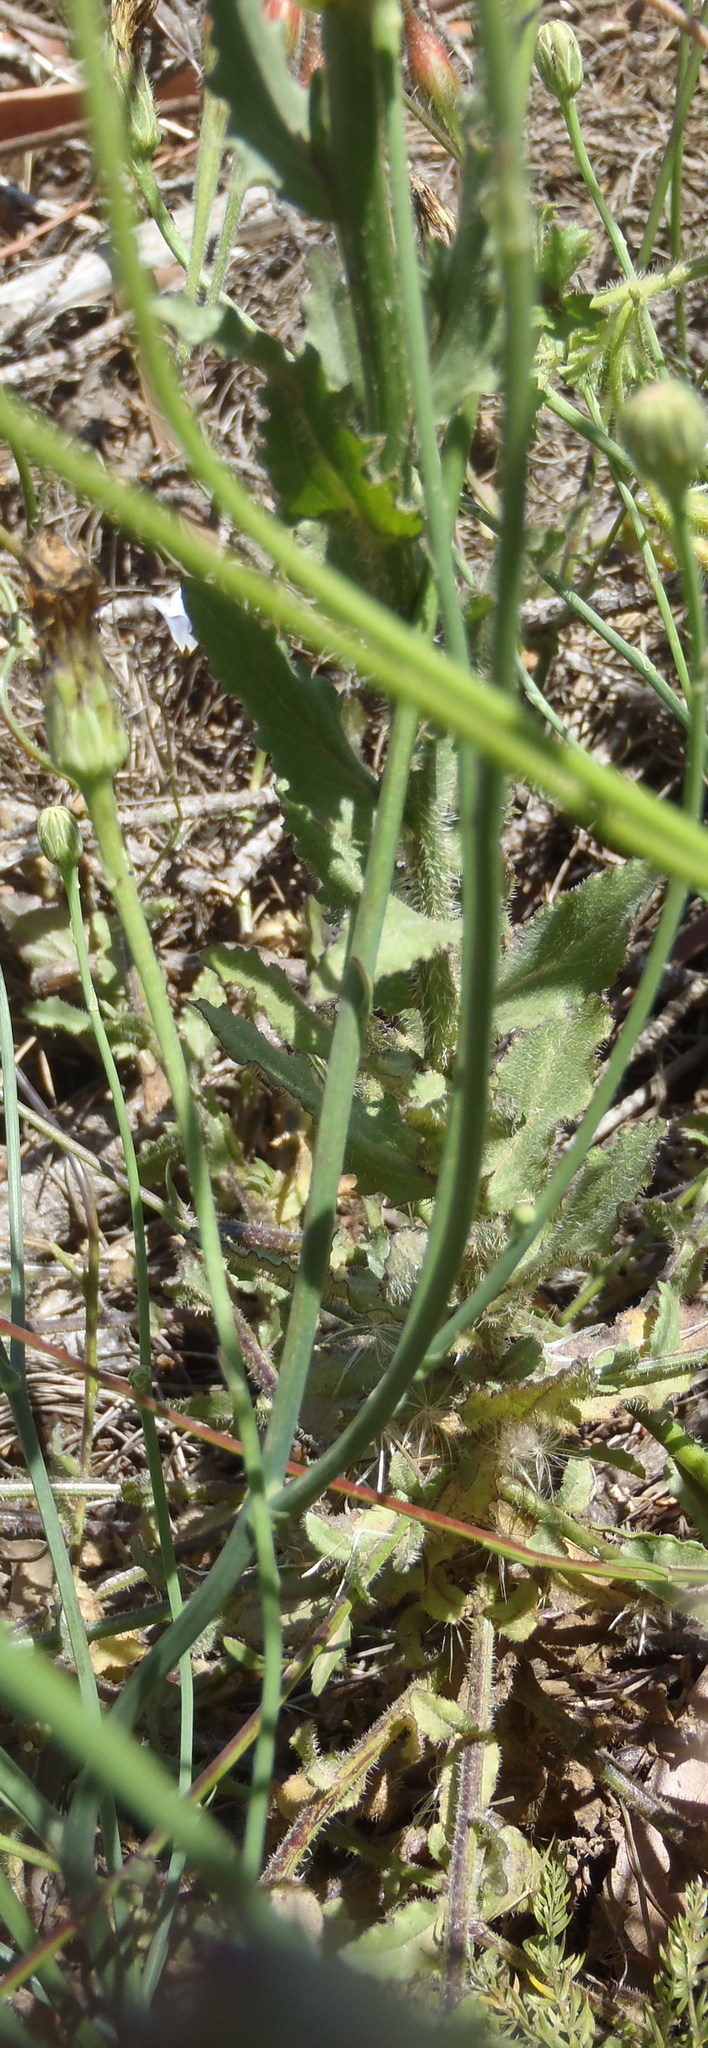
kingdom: Plantae
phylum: Tracheophyta
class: Magnoliopsida
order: Asterales
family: Campanulaceae
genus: Wahlenbergia
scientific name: Wahlenbergia obovata
